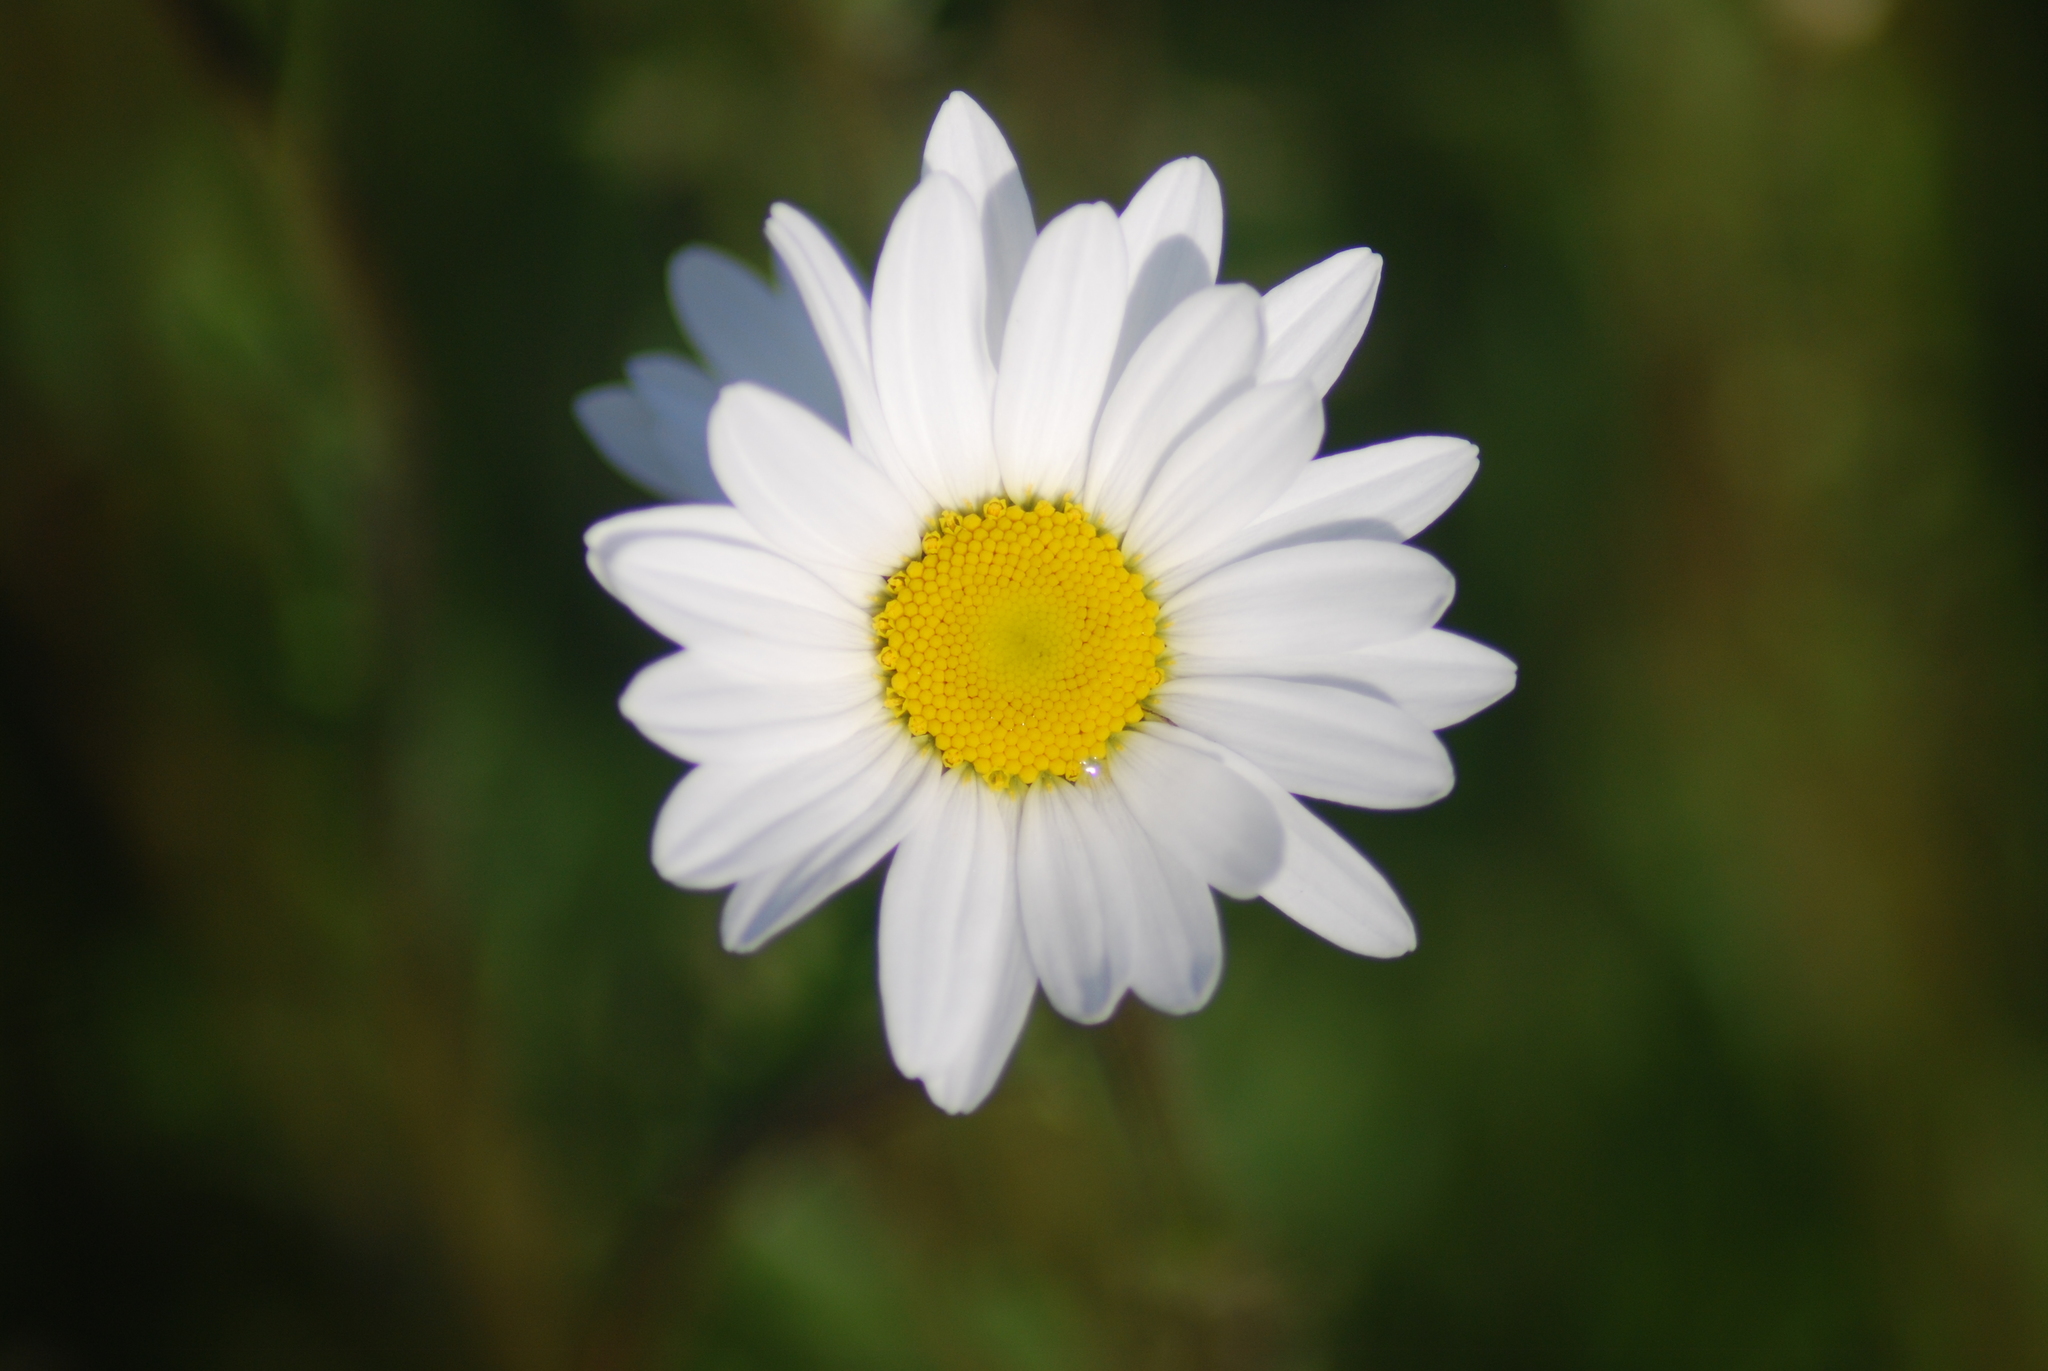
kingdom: Plantae
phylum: Tracheophyta
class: Magnoliopsida
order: Asterales
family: Asteraceae
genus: Matricaria
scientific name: Matricaria chamomilla
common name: Scented mayweed
